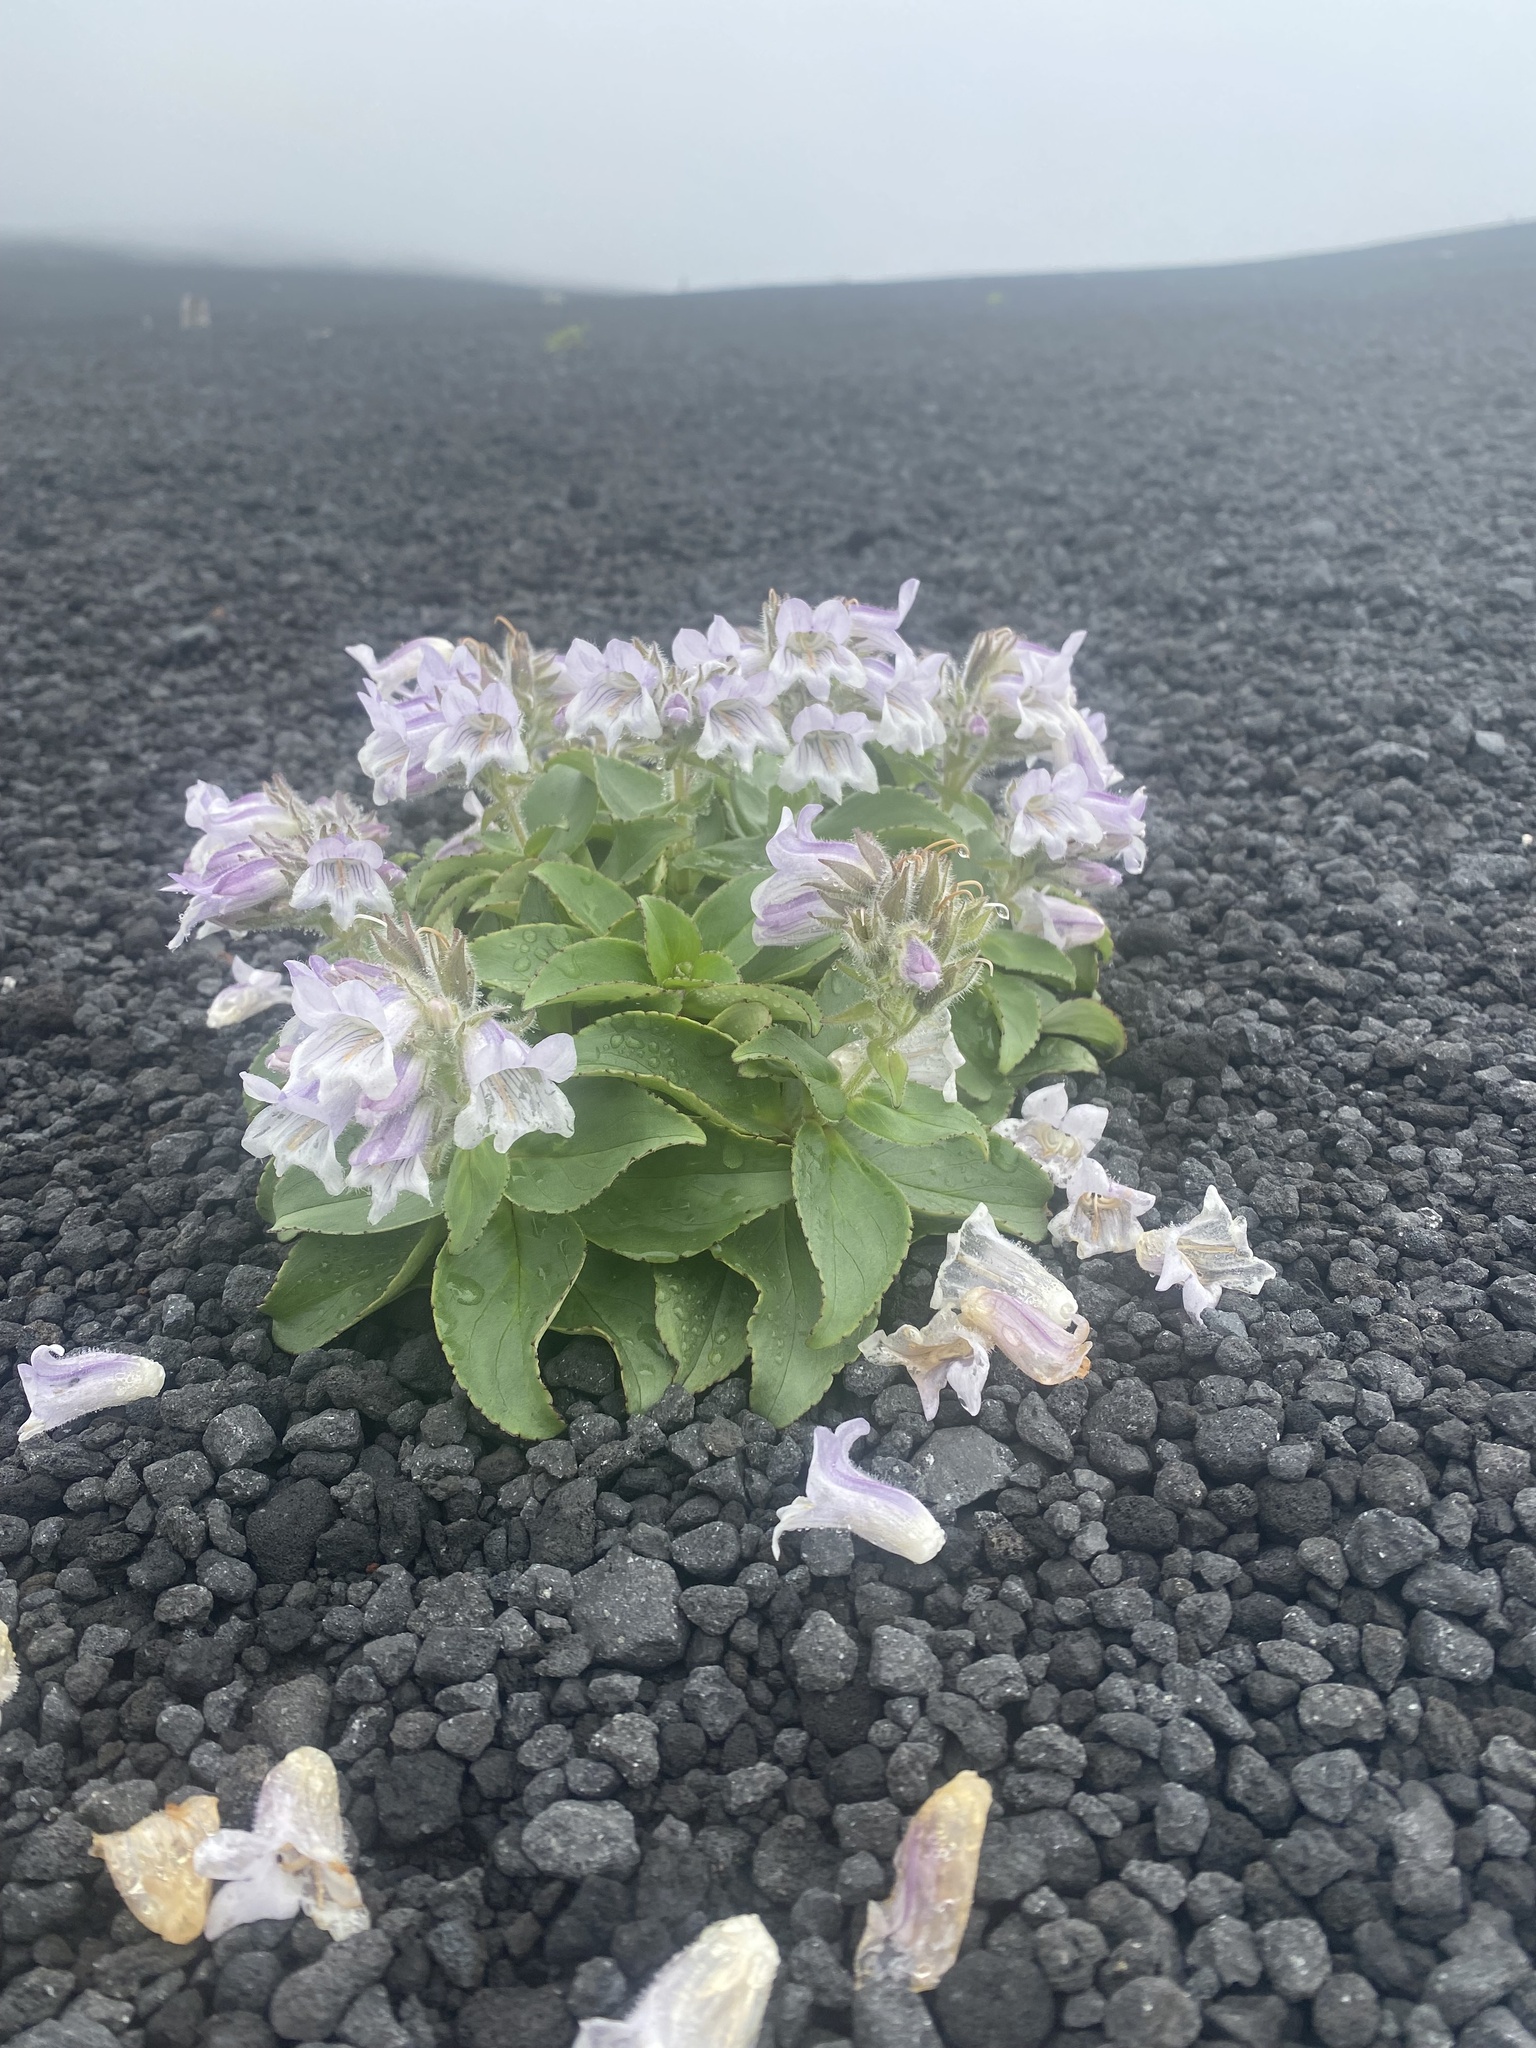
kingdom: Plantae
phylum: Tracheophyta
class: Magnoliopsida
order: Lamiales
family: Plantaginaceae
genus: Pennellianthus
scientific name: Pennellianthus frutescens
